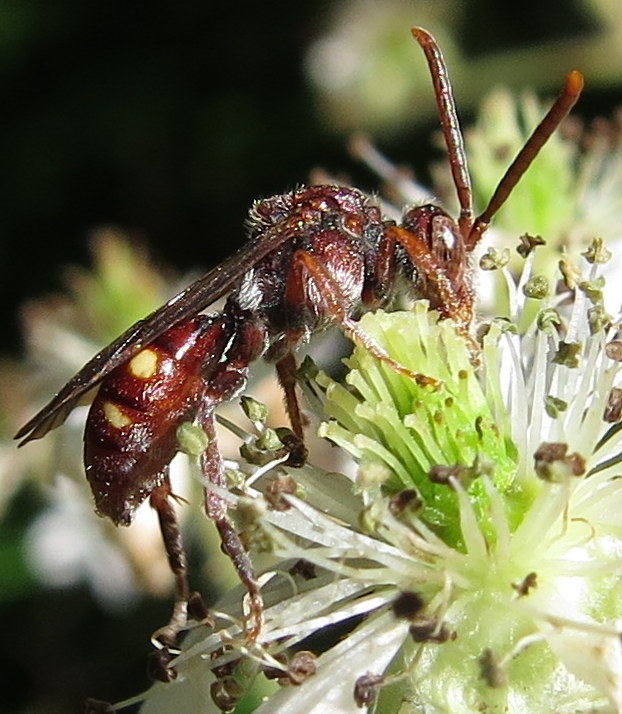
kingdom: Animalia
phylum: Arthropoda
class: Insecta
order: Hymenoptera
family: Apidae
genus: Nomada
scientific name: Nomada
